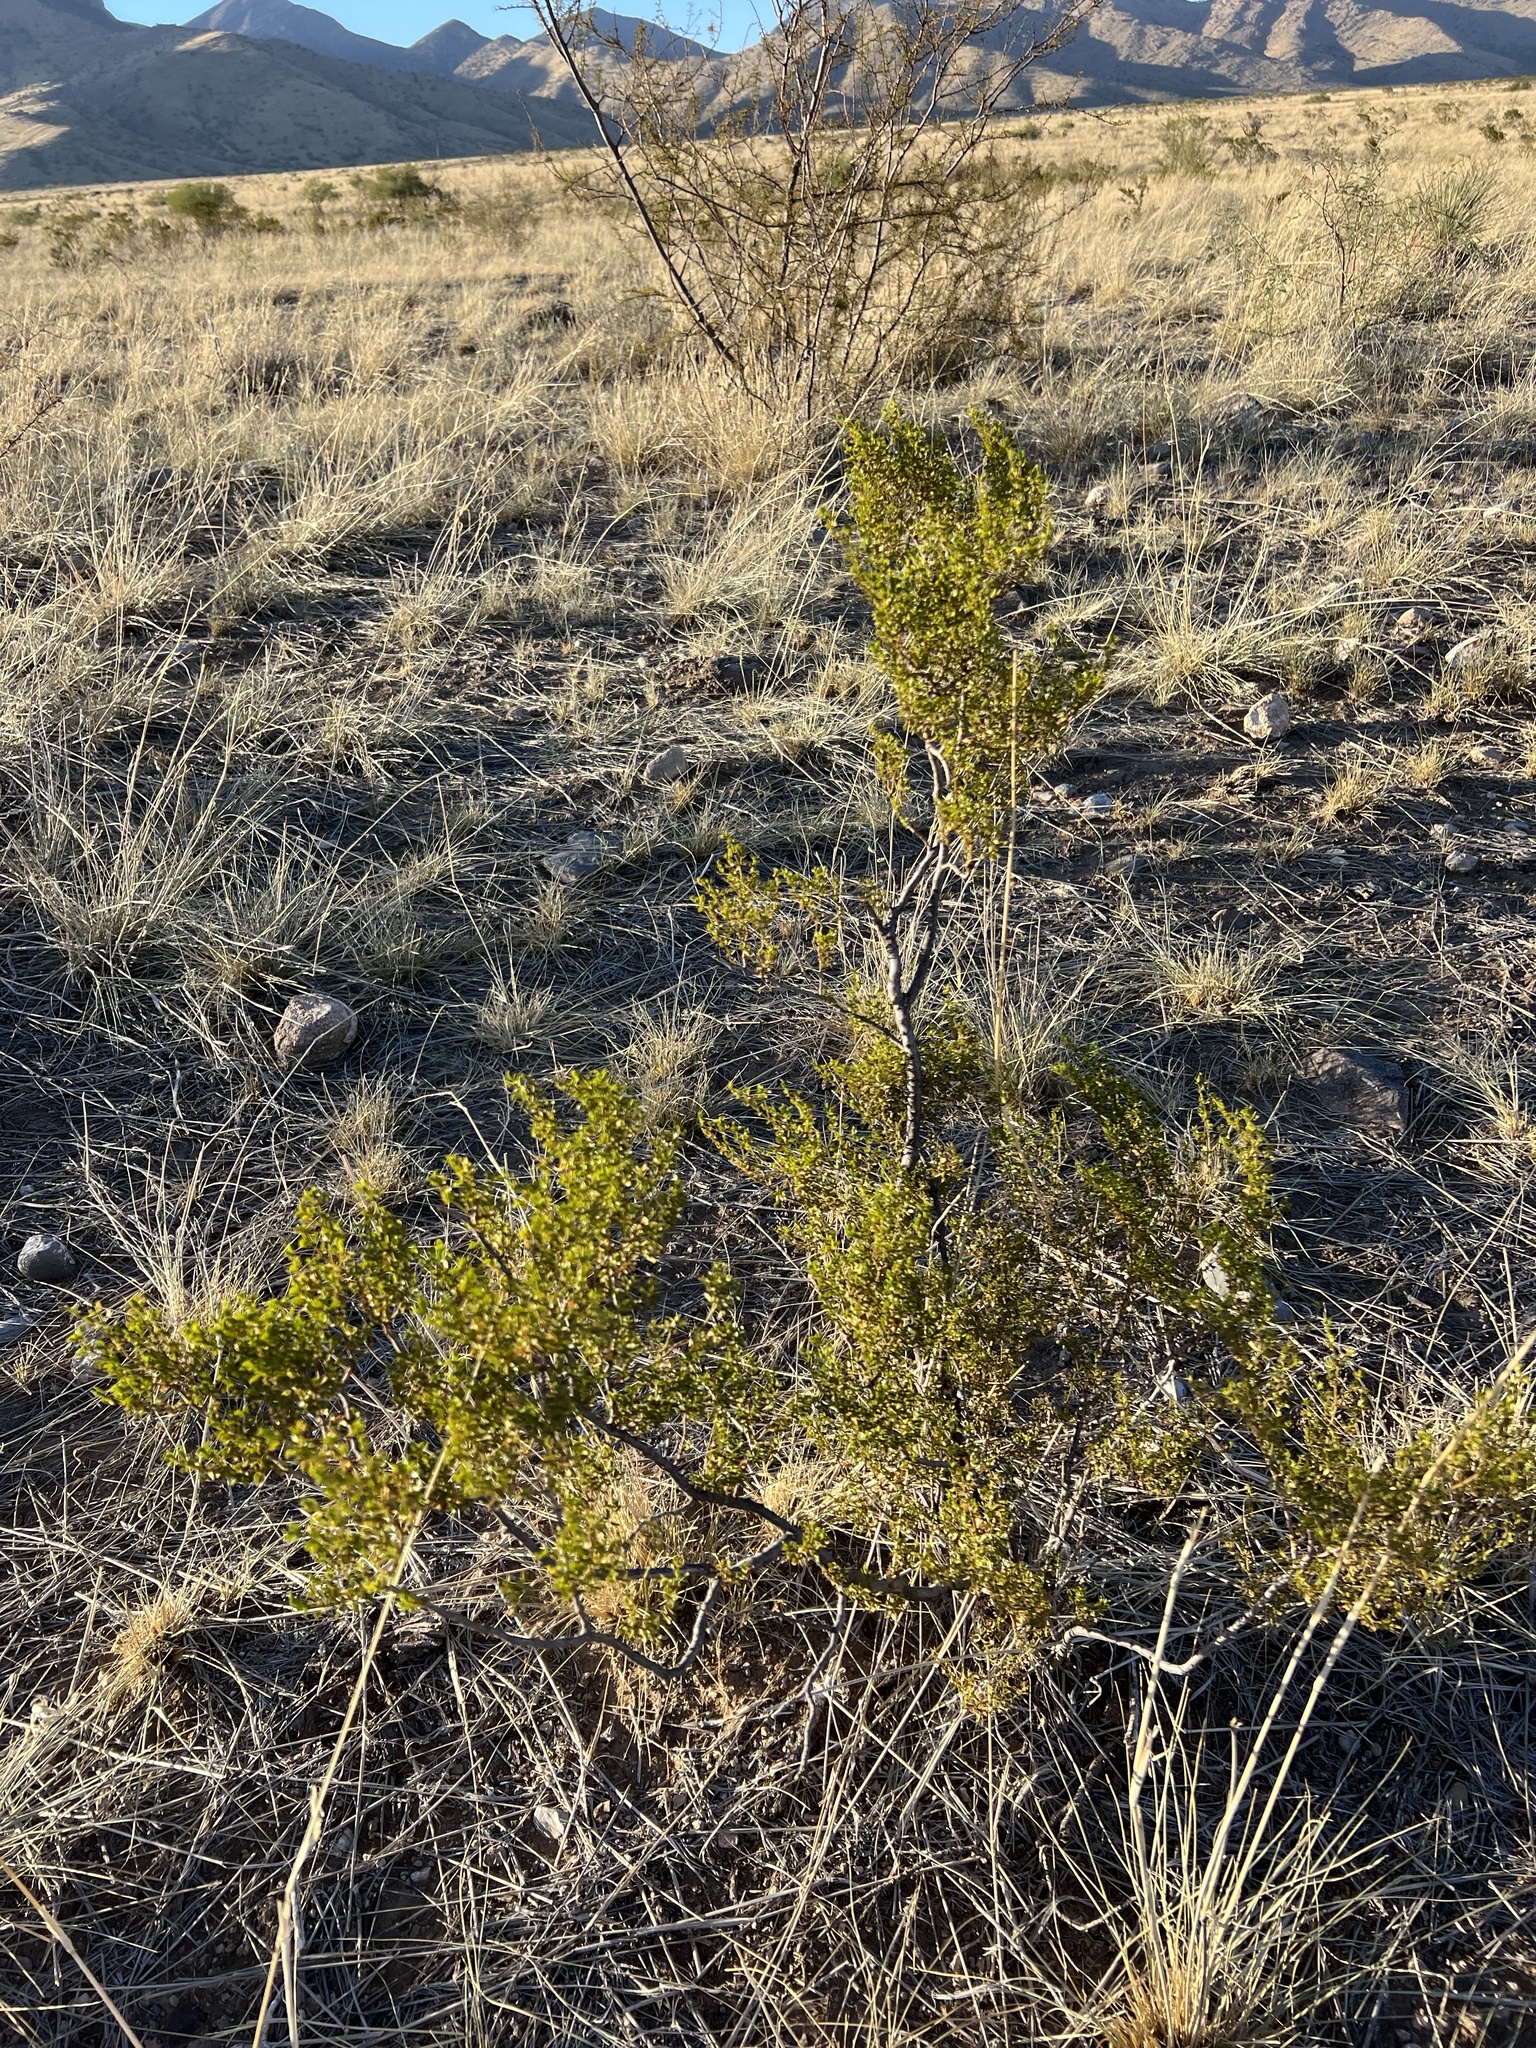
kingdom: Plantae
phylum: Tracheophyta
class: Magnoliopsida
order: Zygophyllales
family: Zygophyllaceae
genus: Larrea
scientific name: Larrea tridentata
